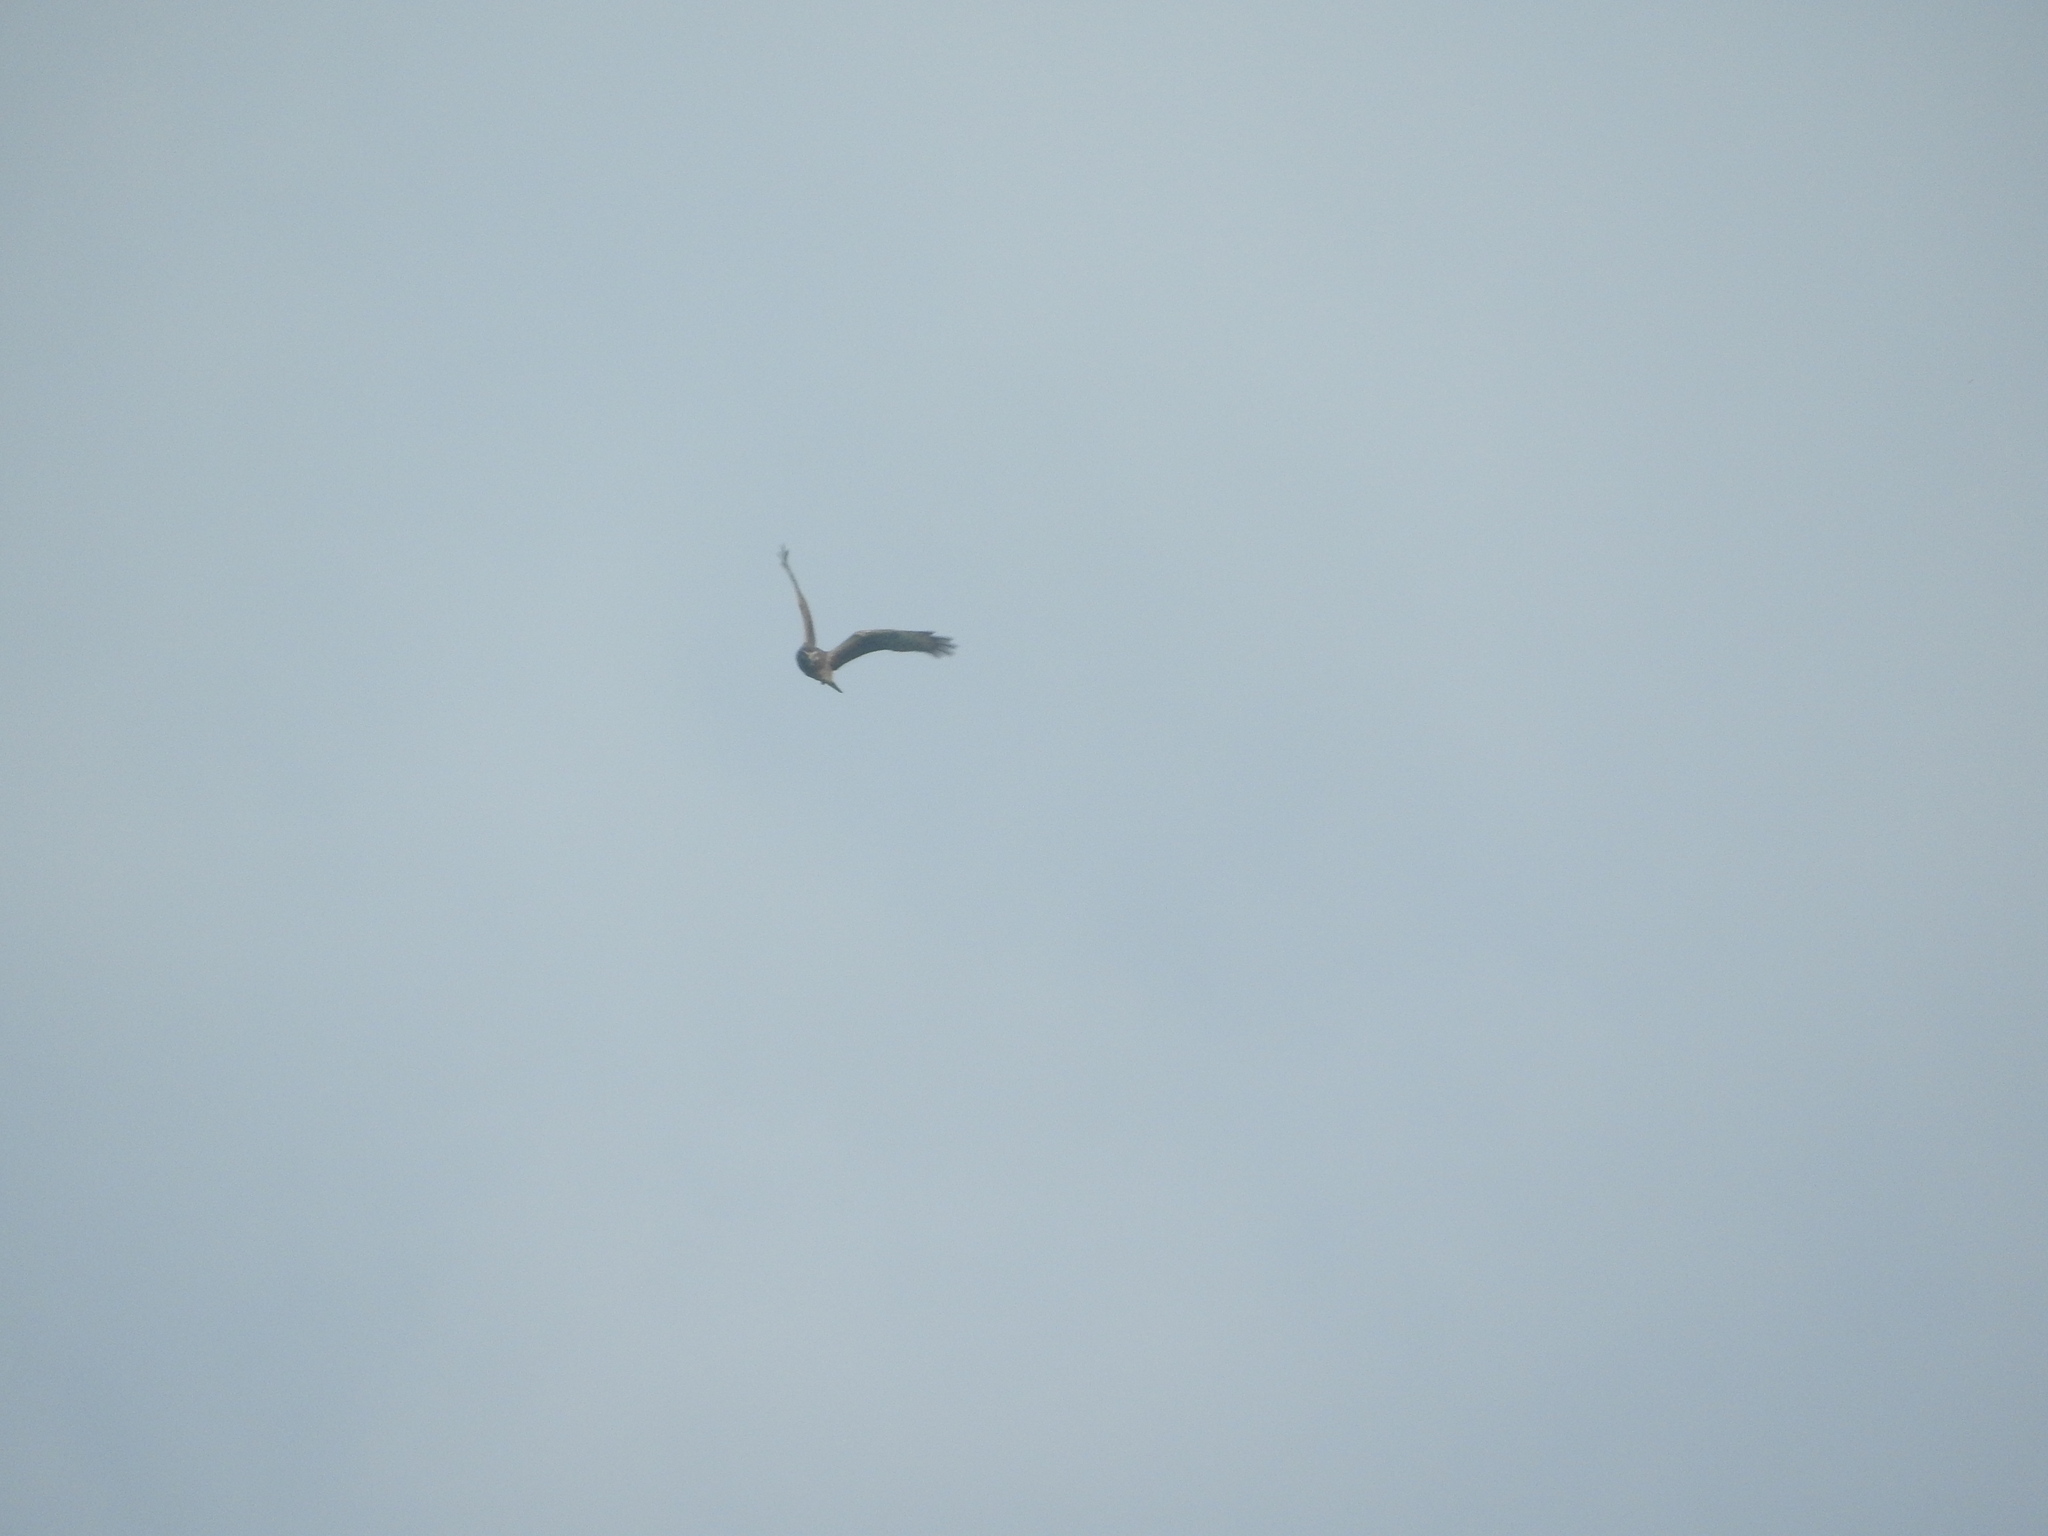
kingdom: Animalia
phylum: Chordata
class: Aves
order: Accipitriformes
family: Accipitridae
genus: Circus
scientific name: Circus cyaneus
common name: Hen harrier
